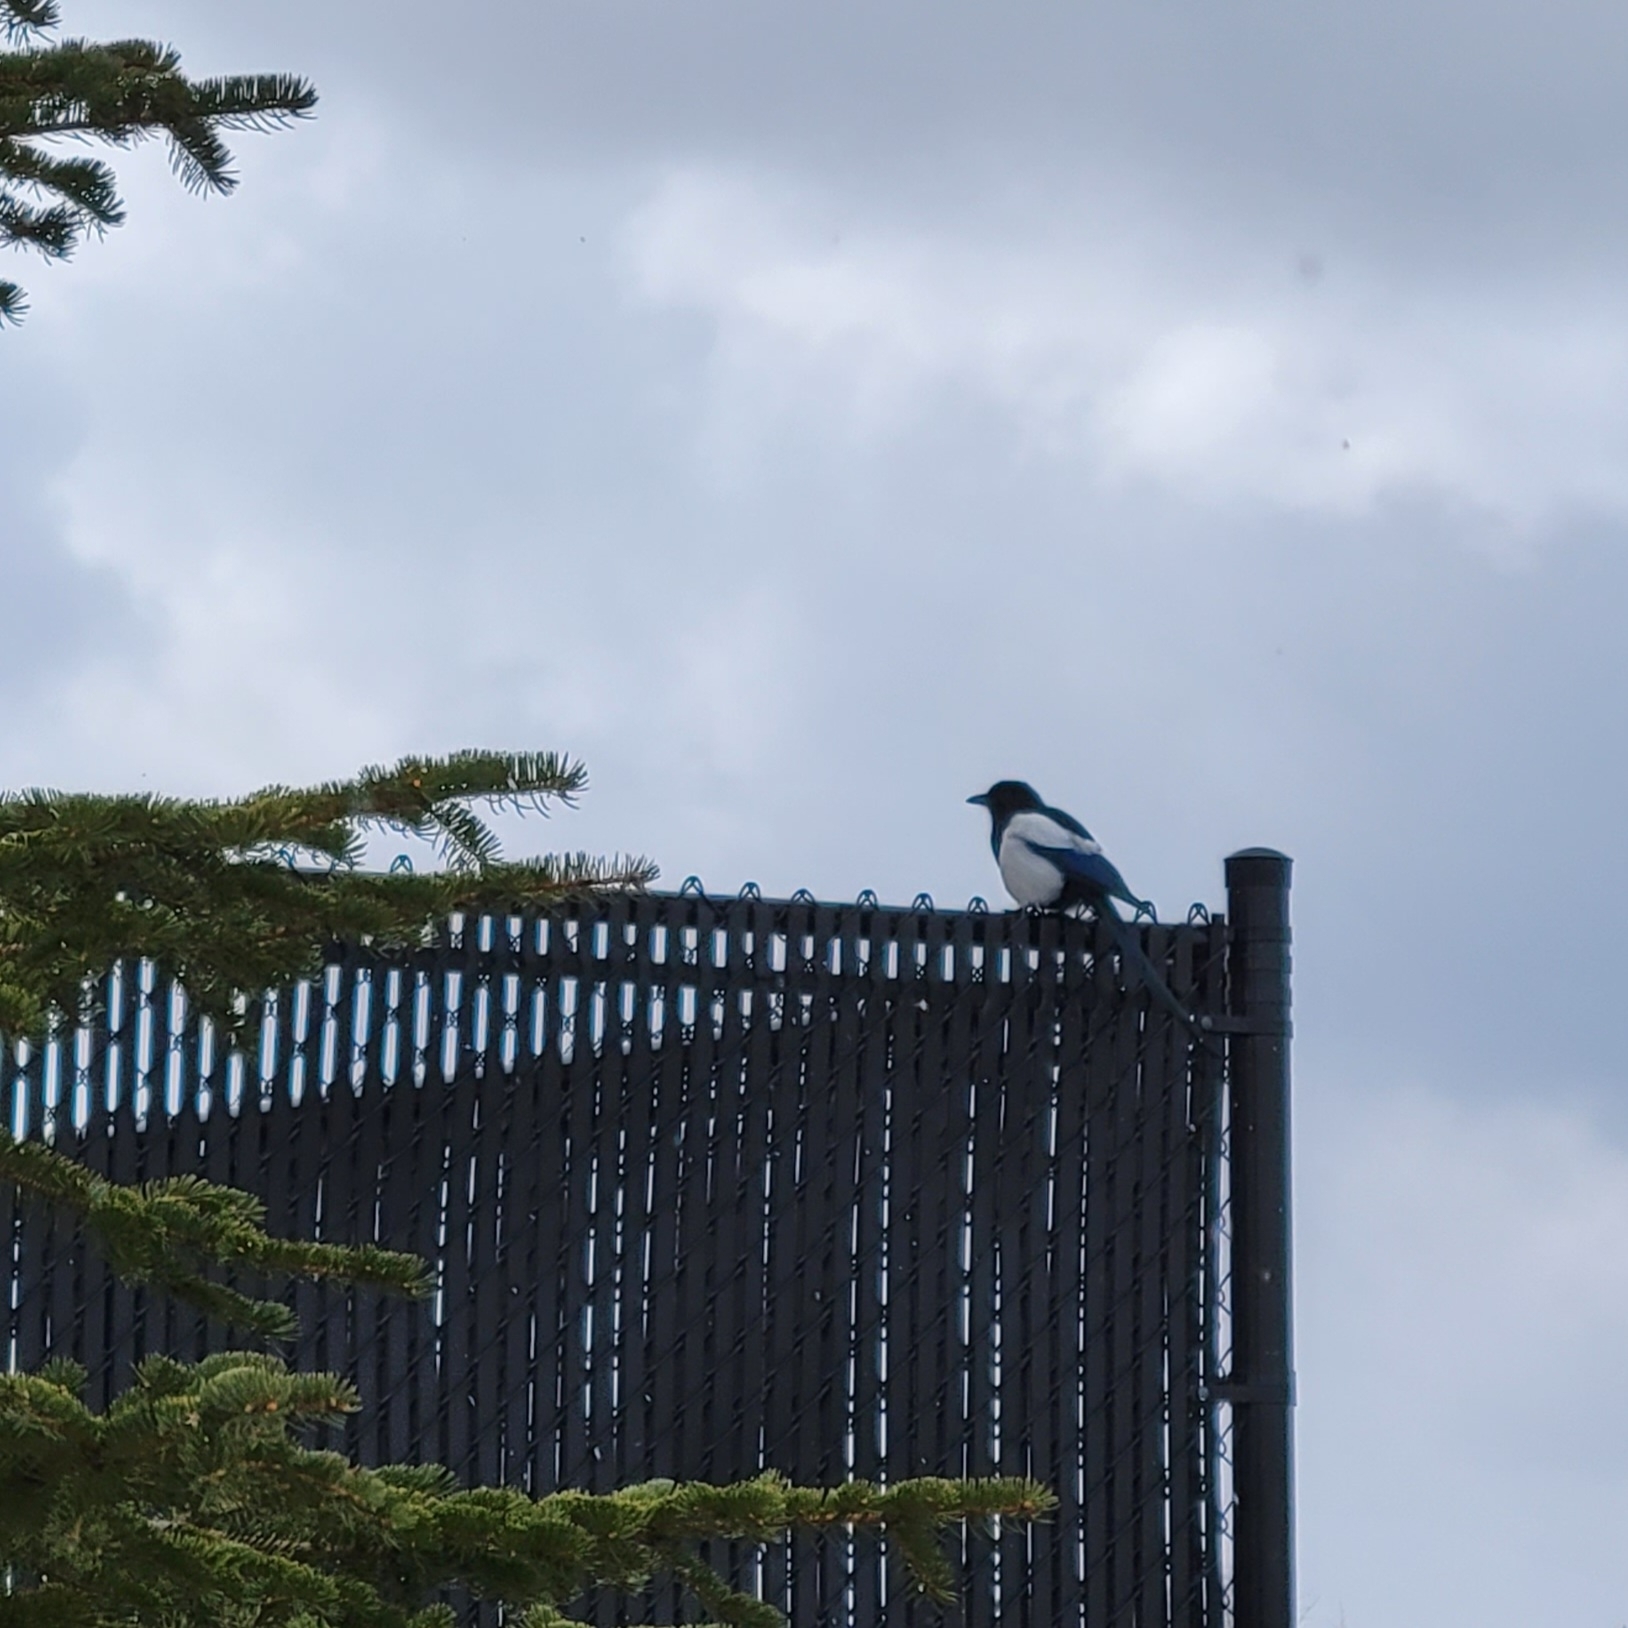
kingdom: Animalia
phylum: Chordata
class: Aves
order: Passeriformes
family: Corvidae
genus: Pica
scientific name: Pica hudsonia
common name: Black-billed magpie
